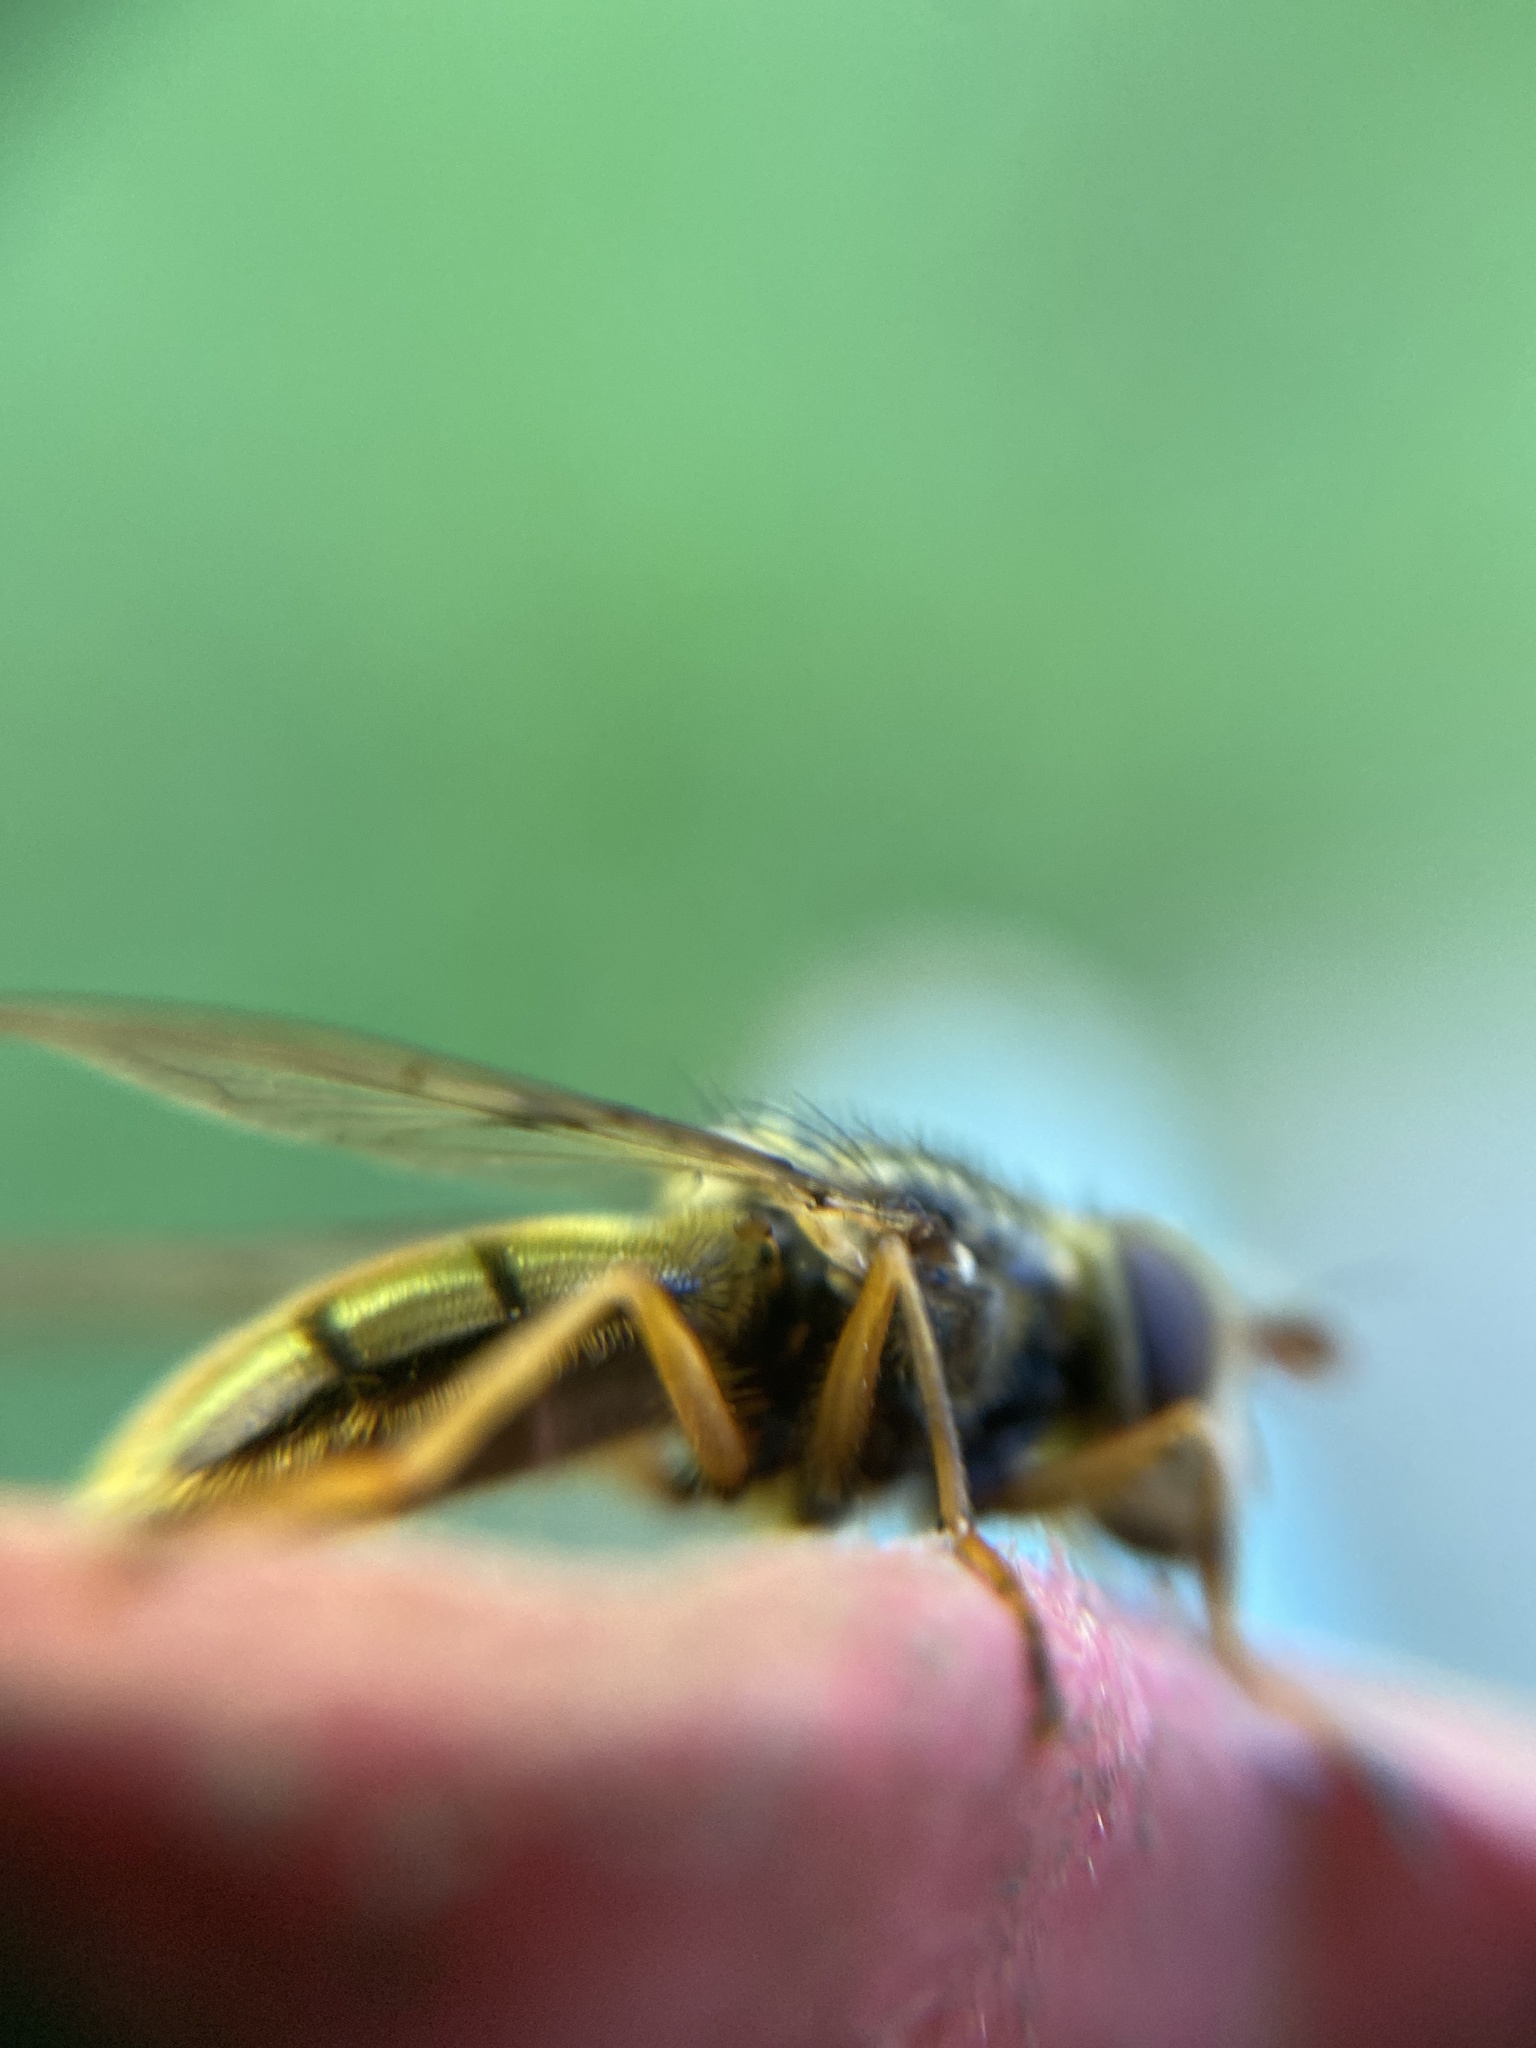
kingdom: Animalia
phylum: Arthropoda
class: Insecta
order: Diptera
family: Syrphidae
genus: Ferdinandea
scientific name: Ferdinandea cuprea
